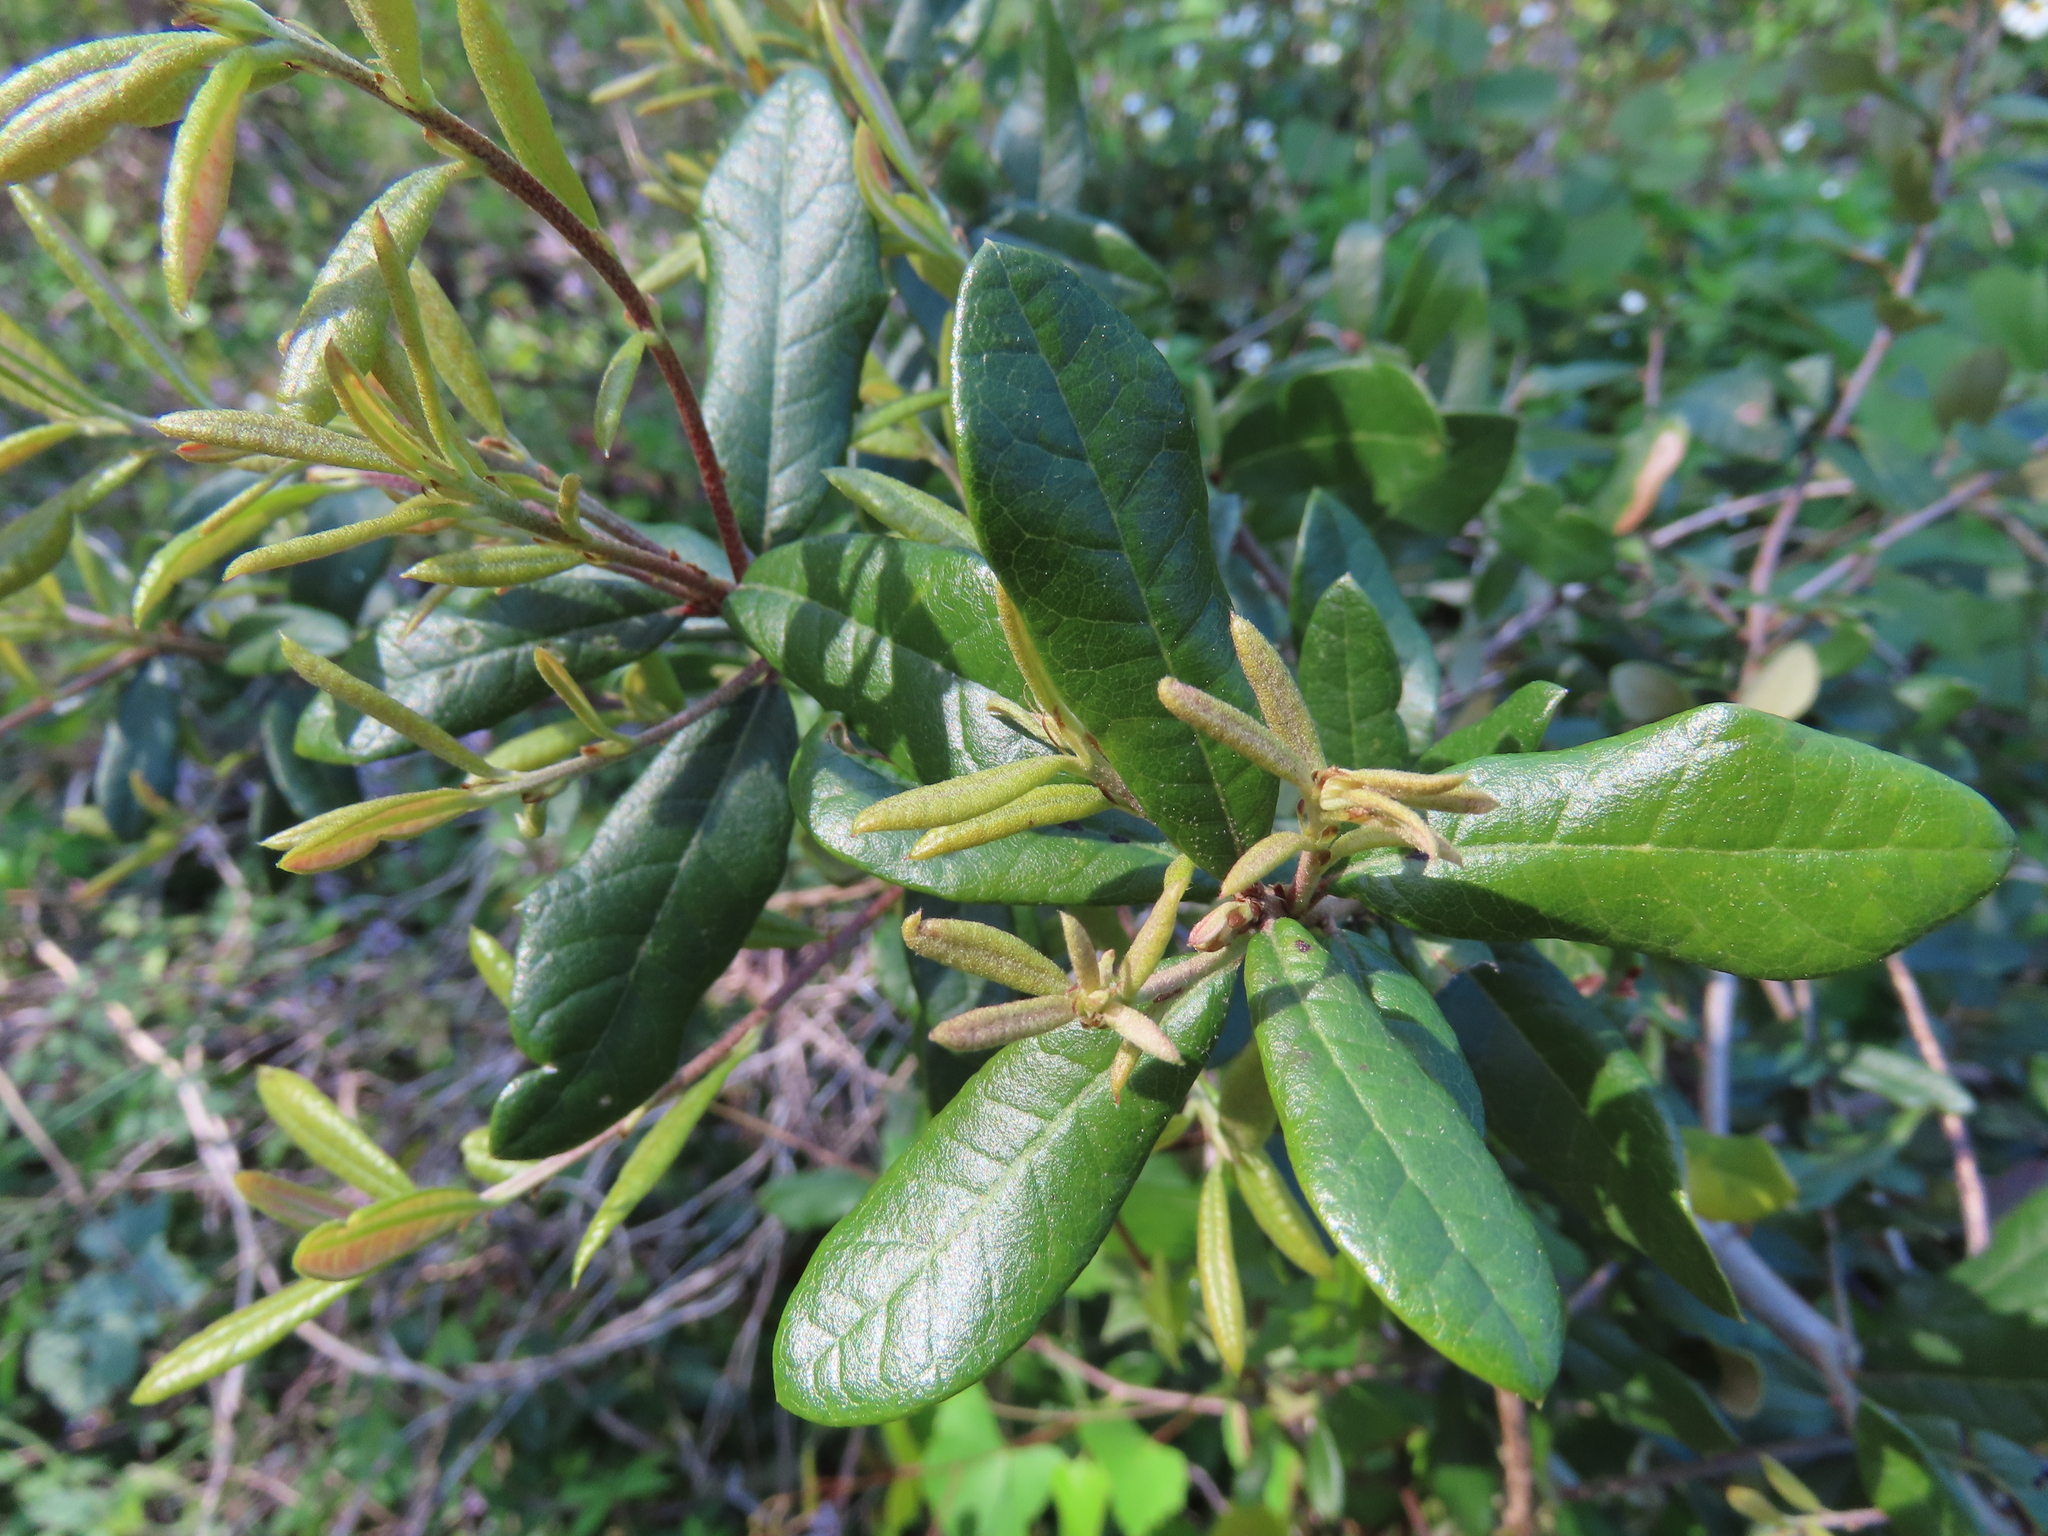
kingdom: Plantae
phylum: Tracheophyta
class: Magnoliopsida
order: Fagales
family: Fagaceae
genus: Quercus
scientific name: Quercus virginiana
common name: Southern live oak
